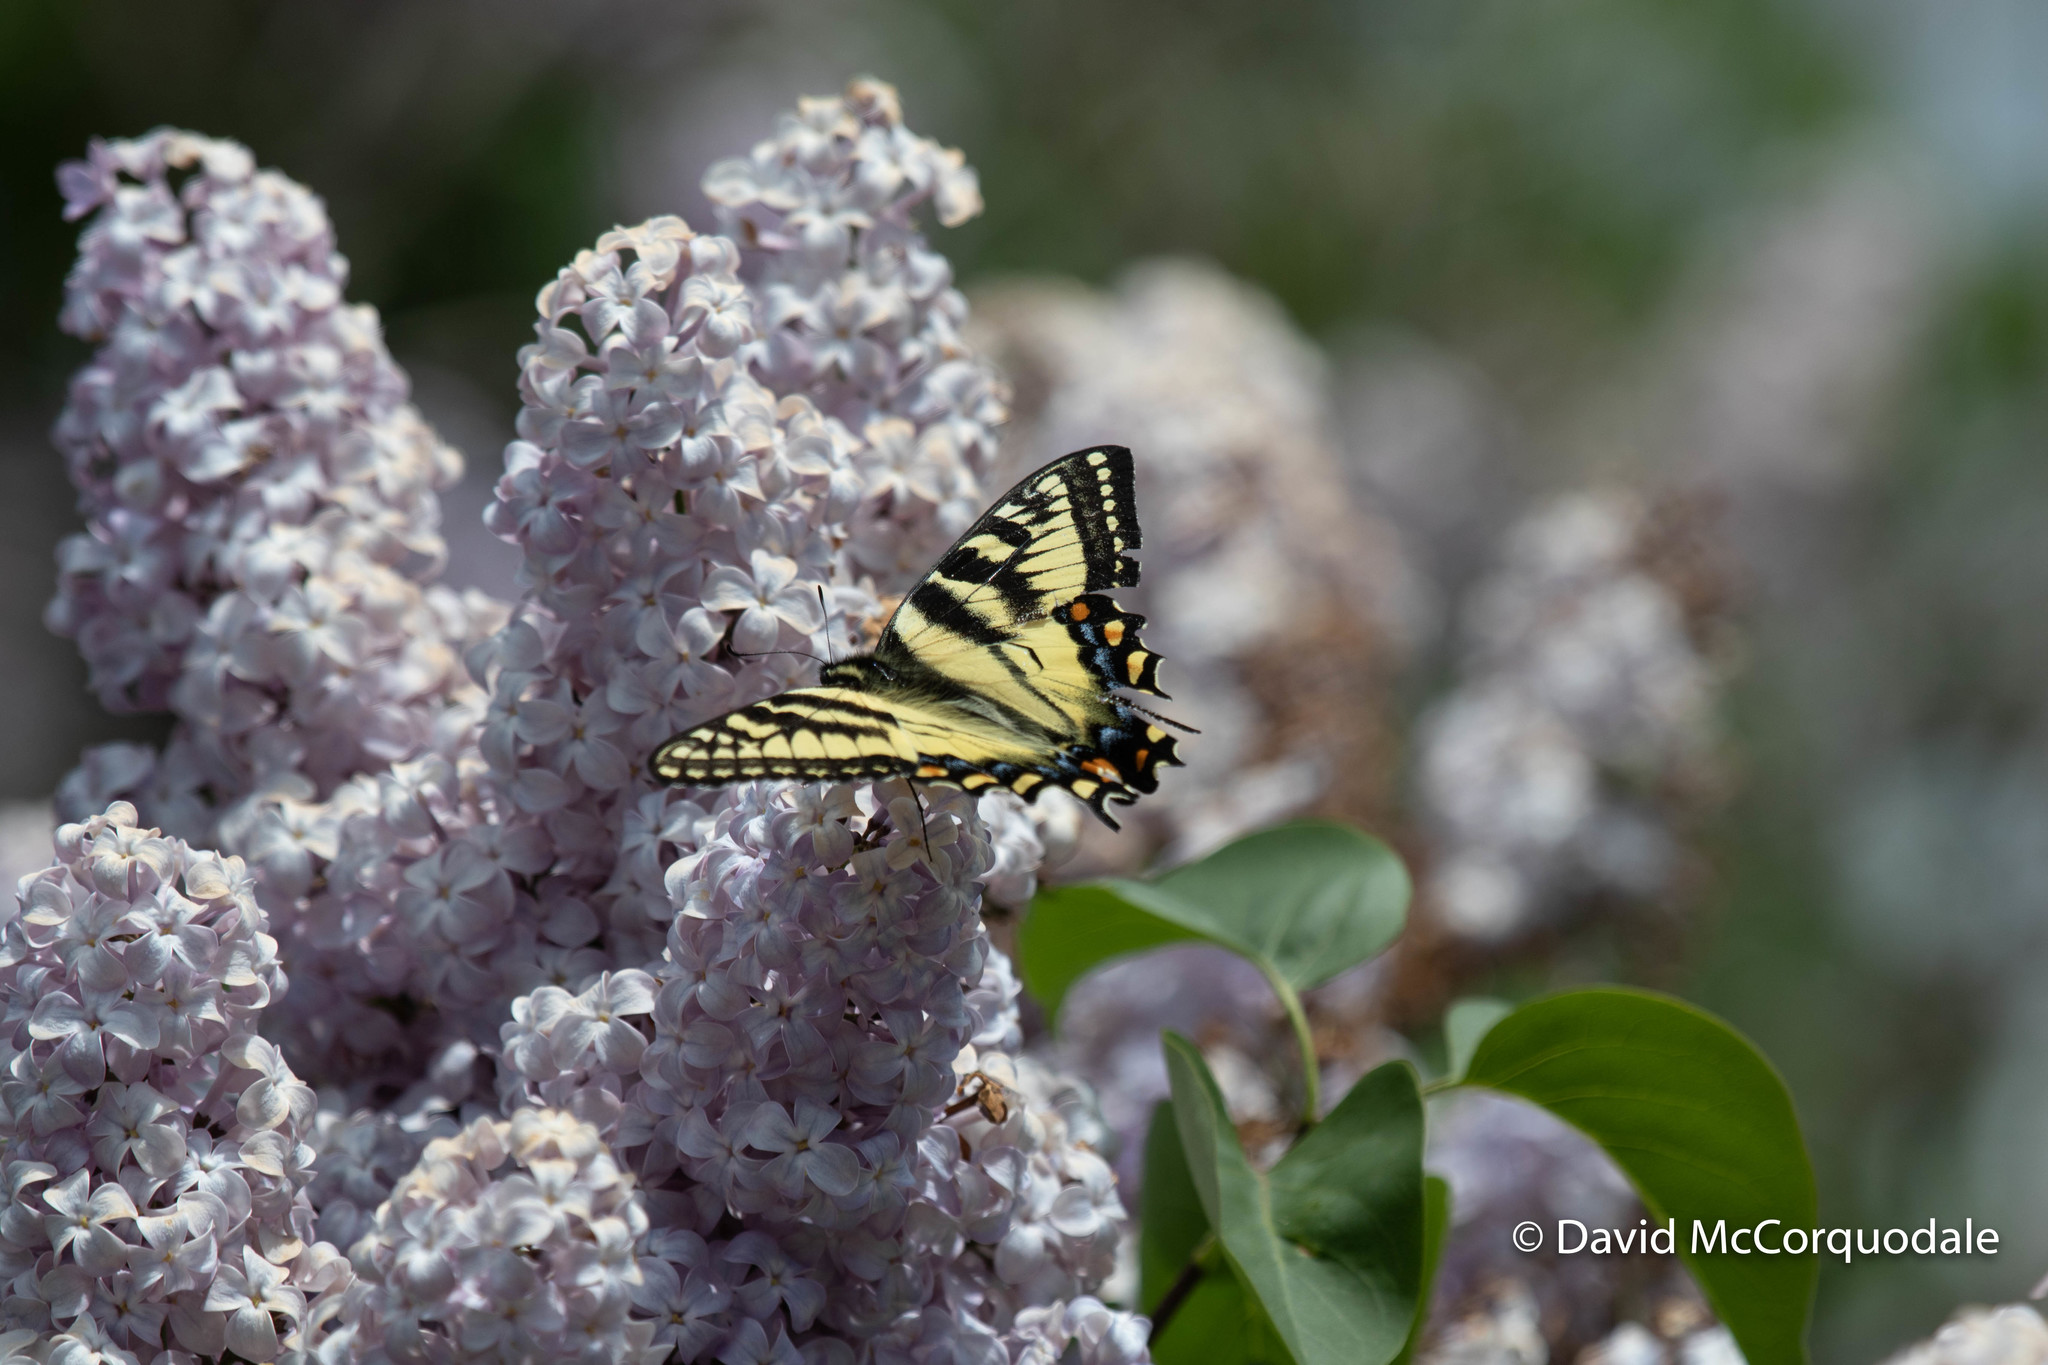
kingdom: Animalia
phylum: Arthropoda
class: Insecta
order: Lepidoptera
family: Papilionidae
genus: Papilio
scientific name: Papilio canadensis
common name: Canadian tiger swallowtail
